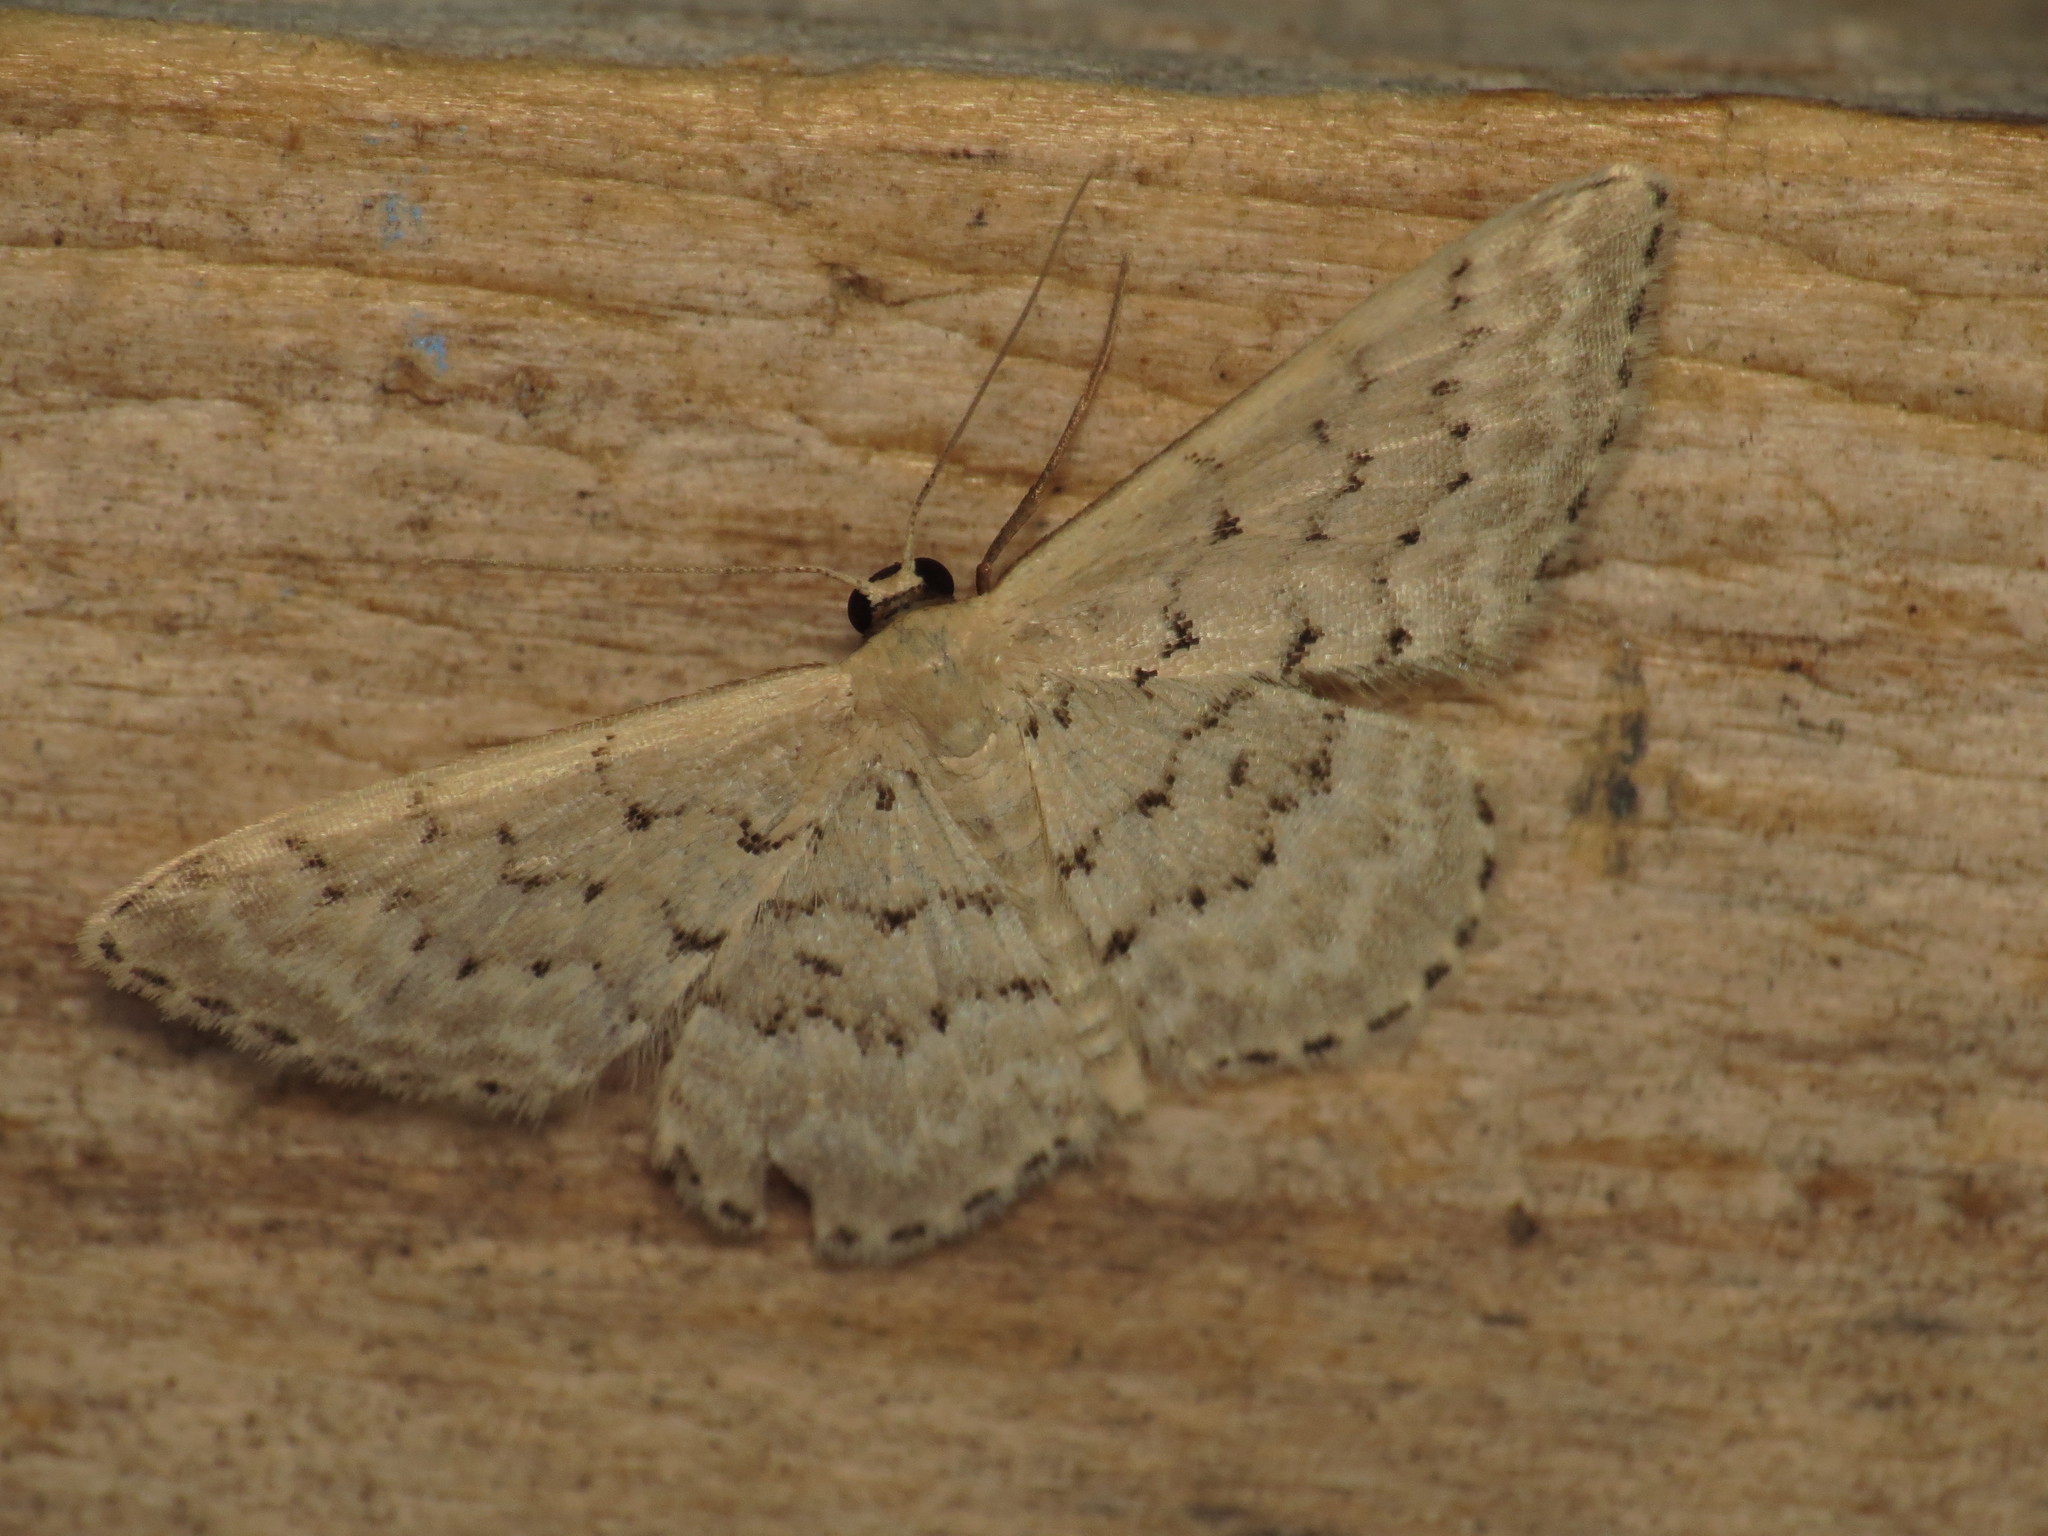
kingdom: Animalia
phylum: Arthropoda
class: Insecta
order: Lepidoptera
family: Geometridae
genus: Idaea
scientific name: Idaea philocosma
